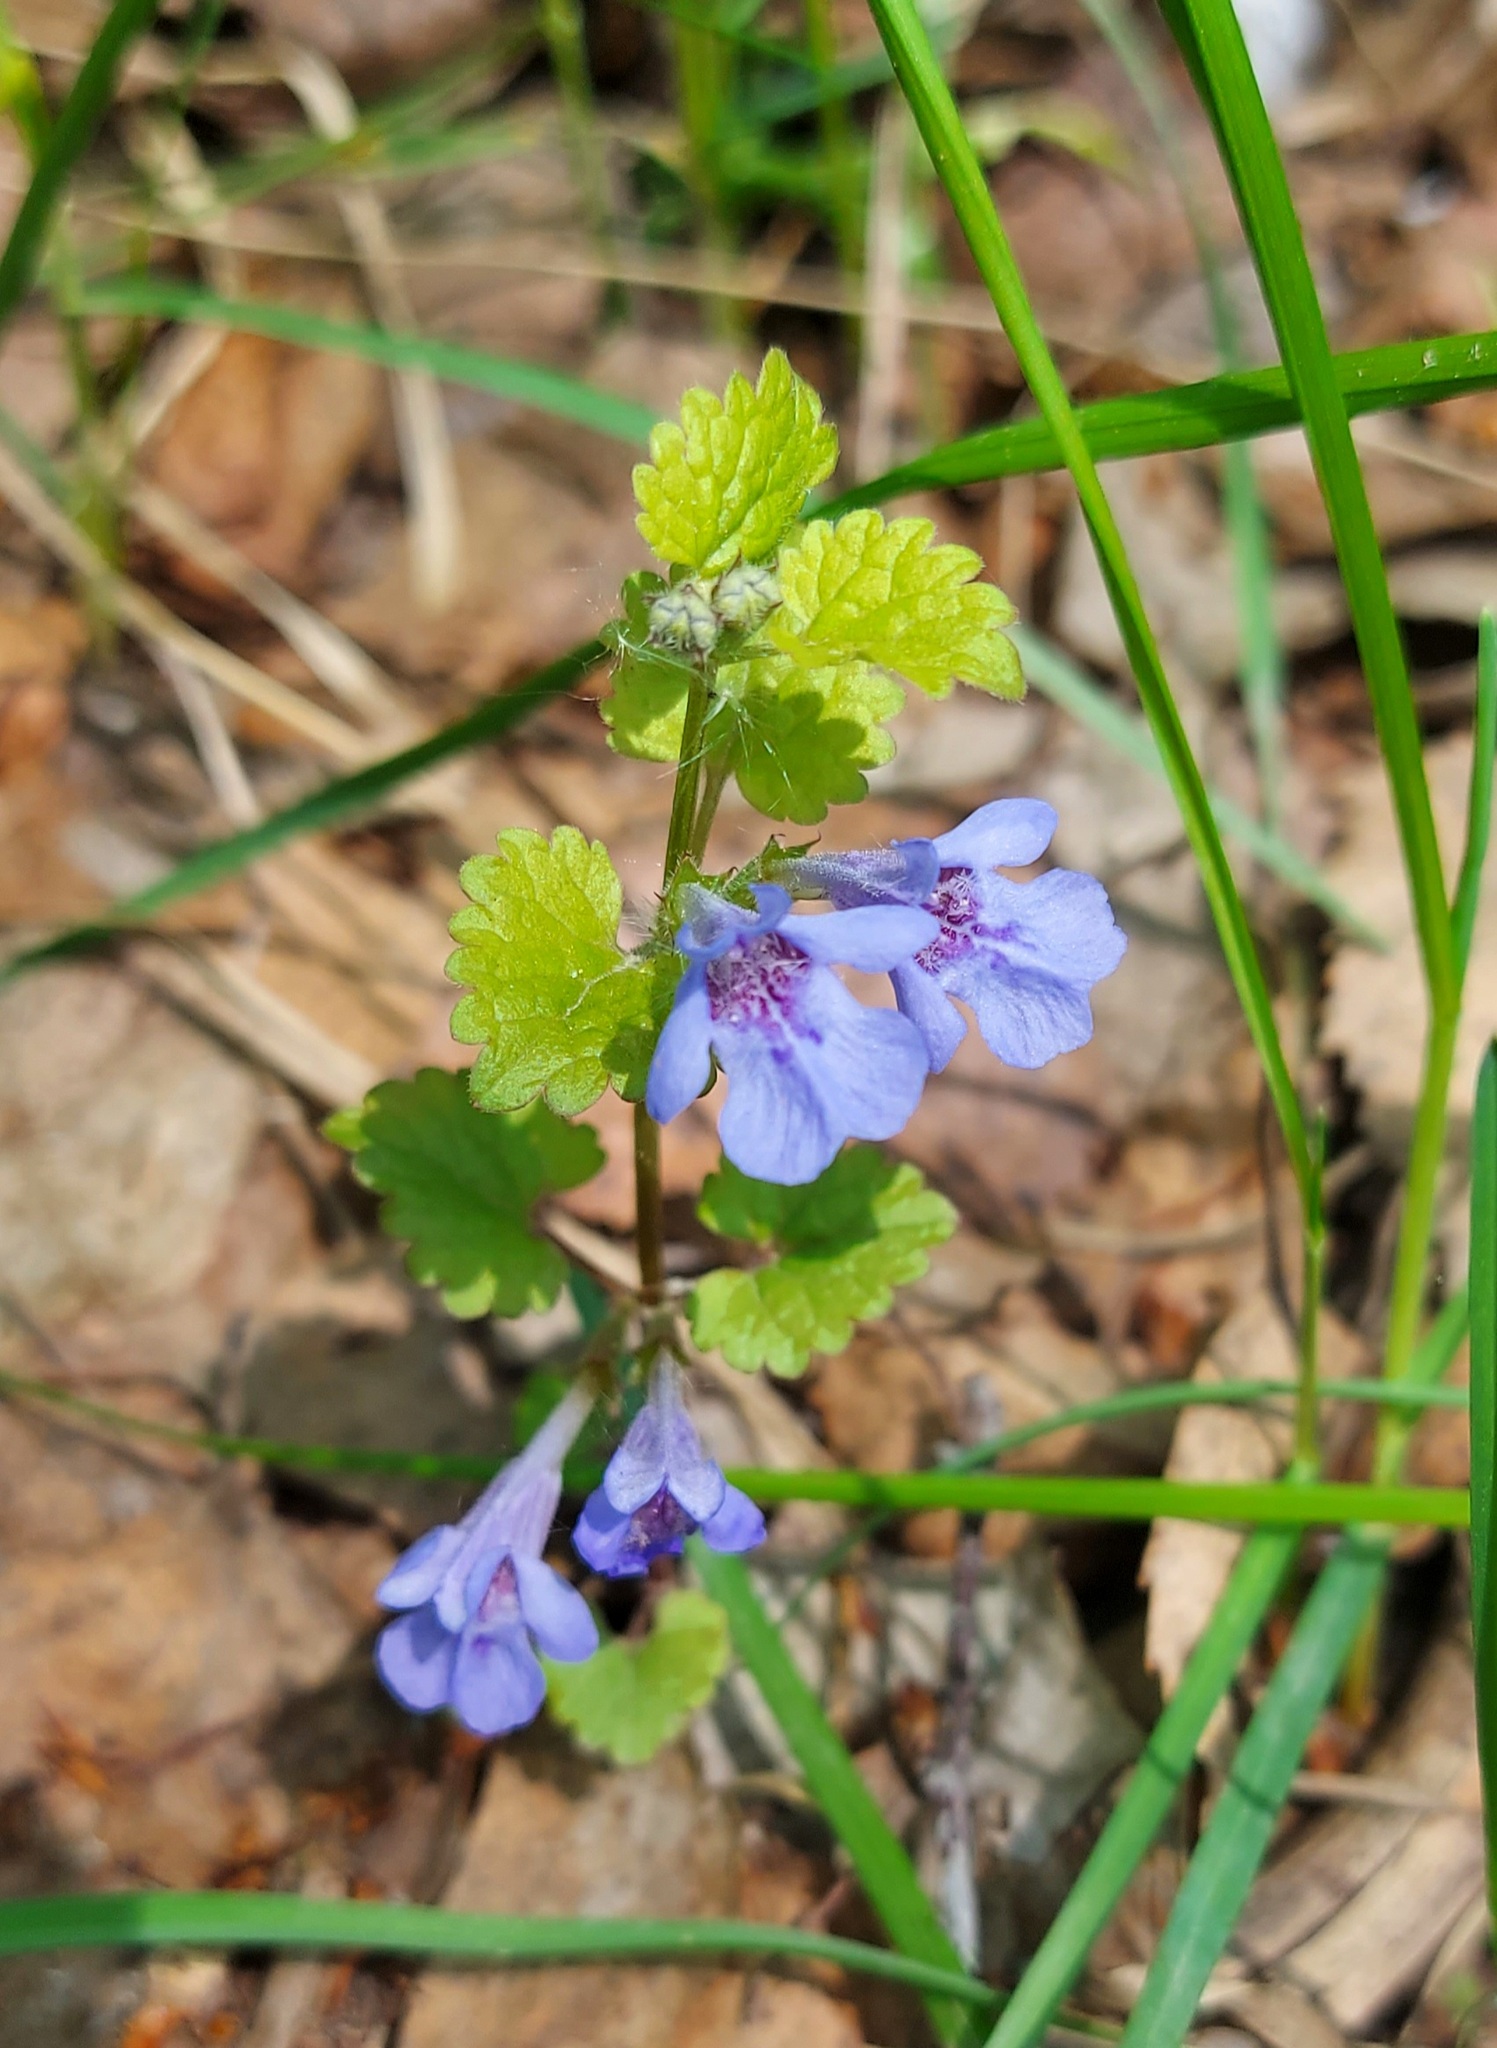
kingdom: Plantae
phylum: Tracheophyta
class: Magnoliopsida
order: Lamiales
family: Lamiaceae
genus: Glechoma
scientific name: Glechoma hederacea
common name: Ground ivy
